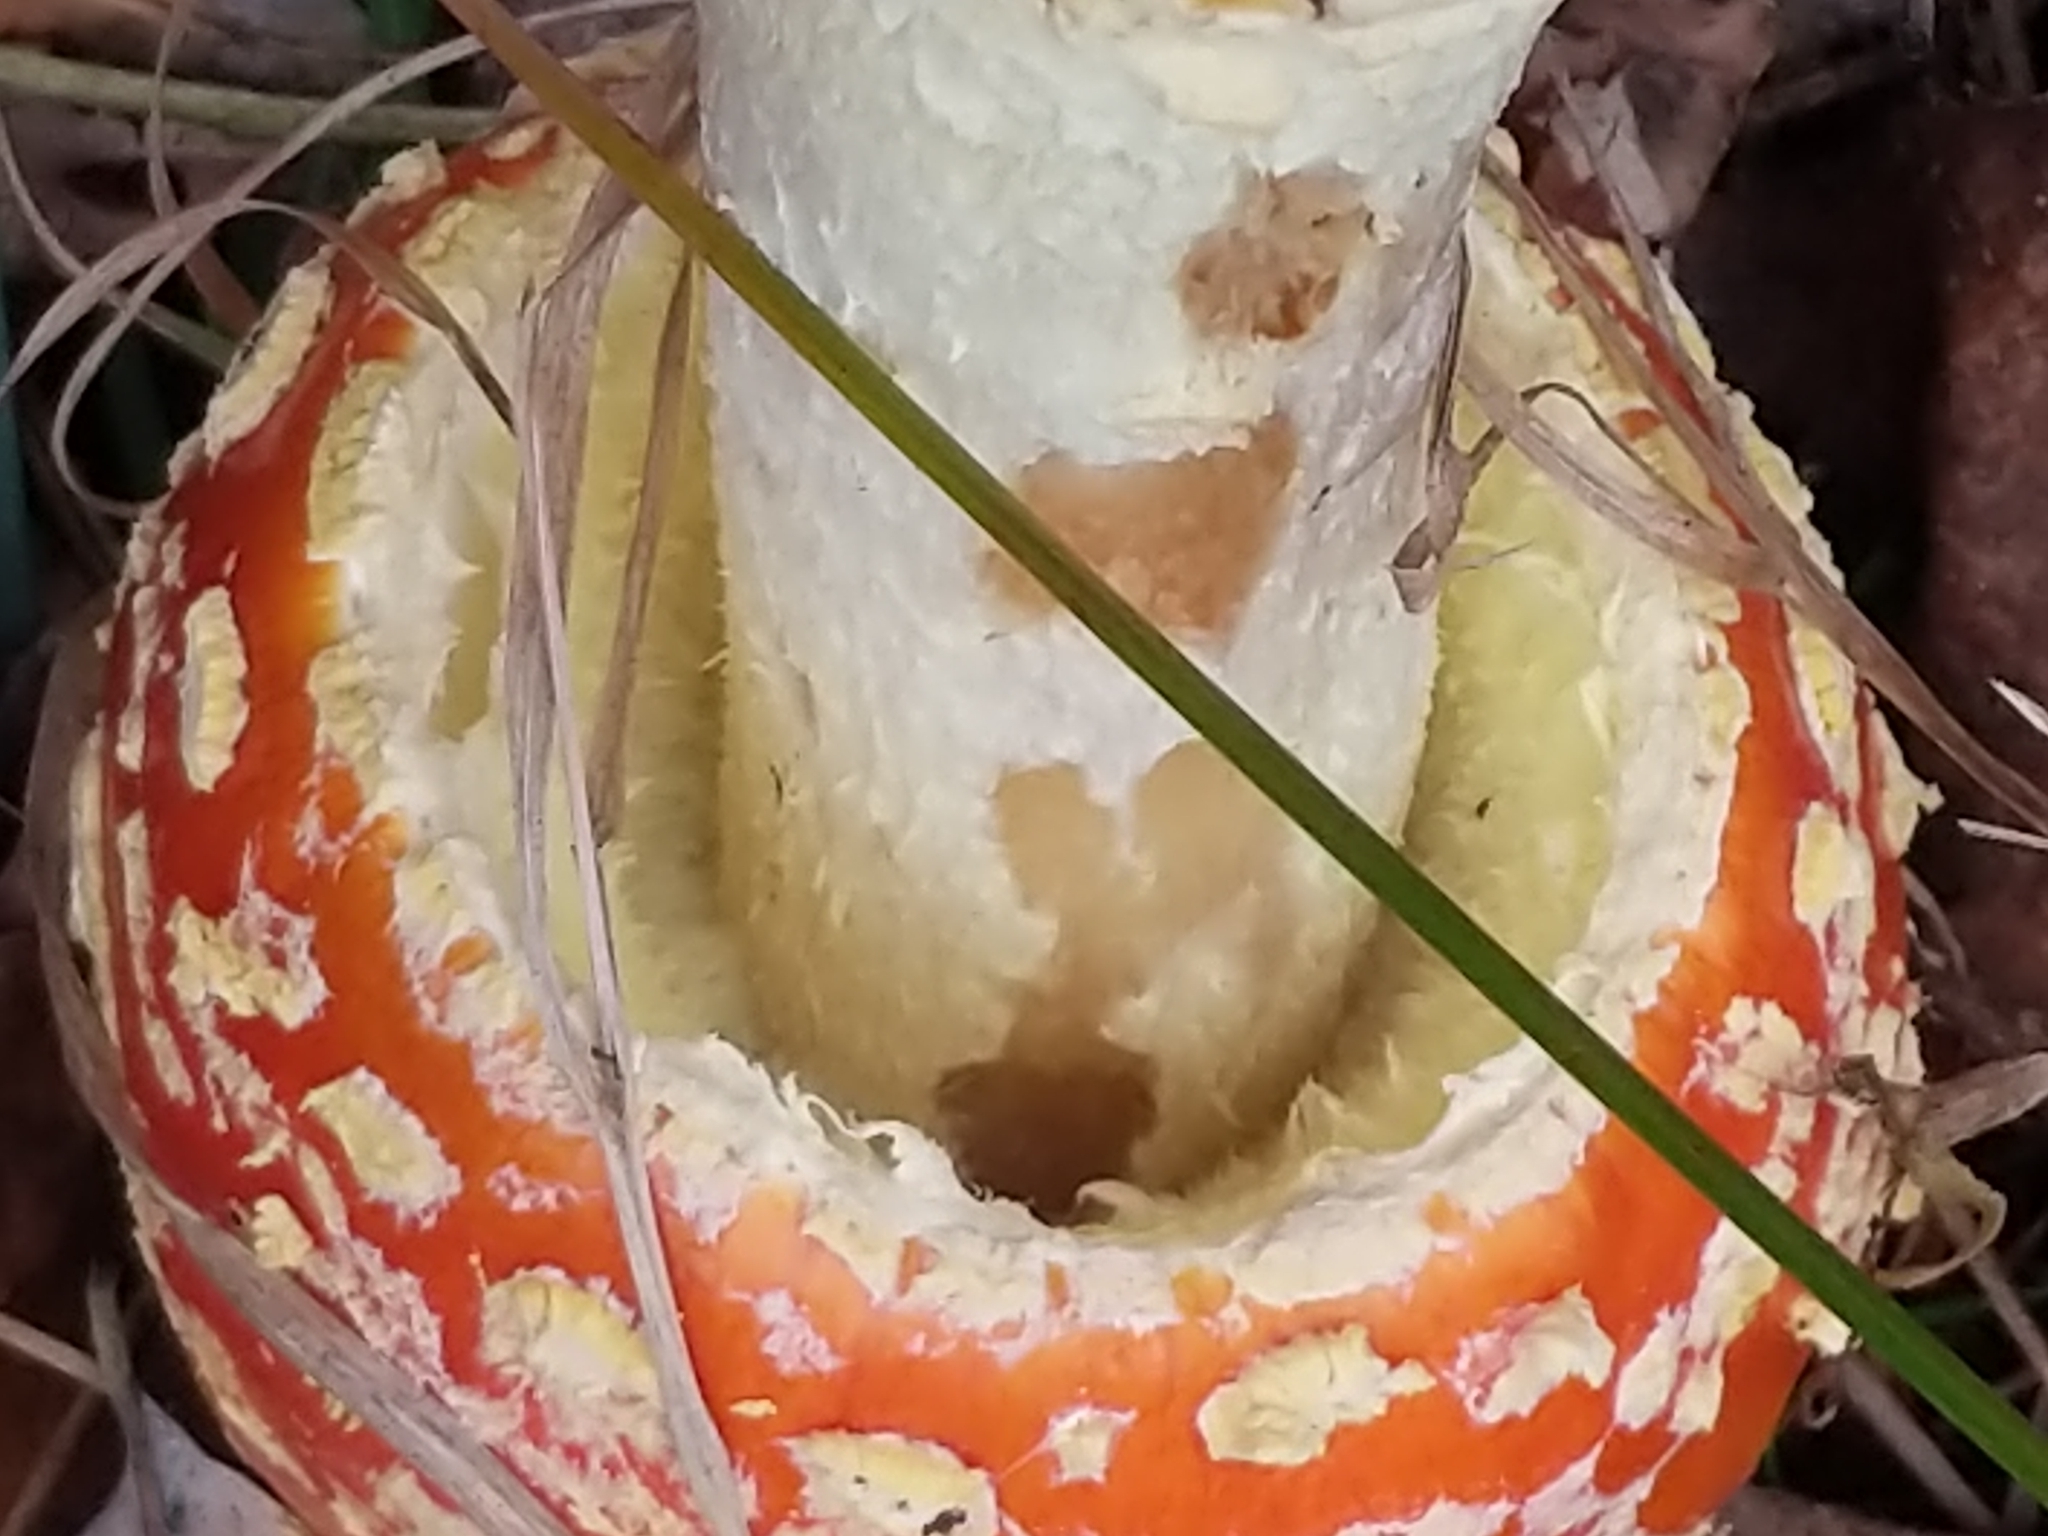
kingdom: Fungi
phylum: Basidiomycota
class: Agaricomycetes
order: Agaricales
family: Amanitaceae
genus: Amanita
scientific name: Amanita muscaria
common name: Fly agaric
